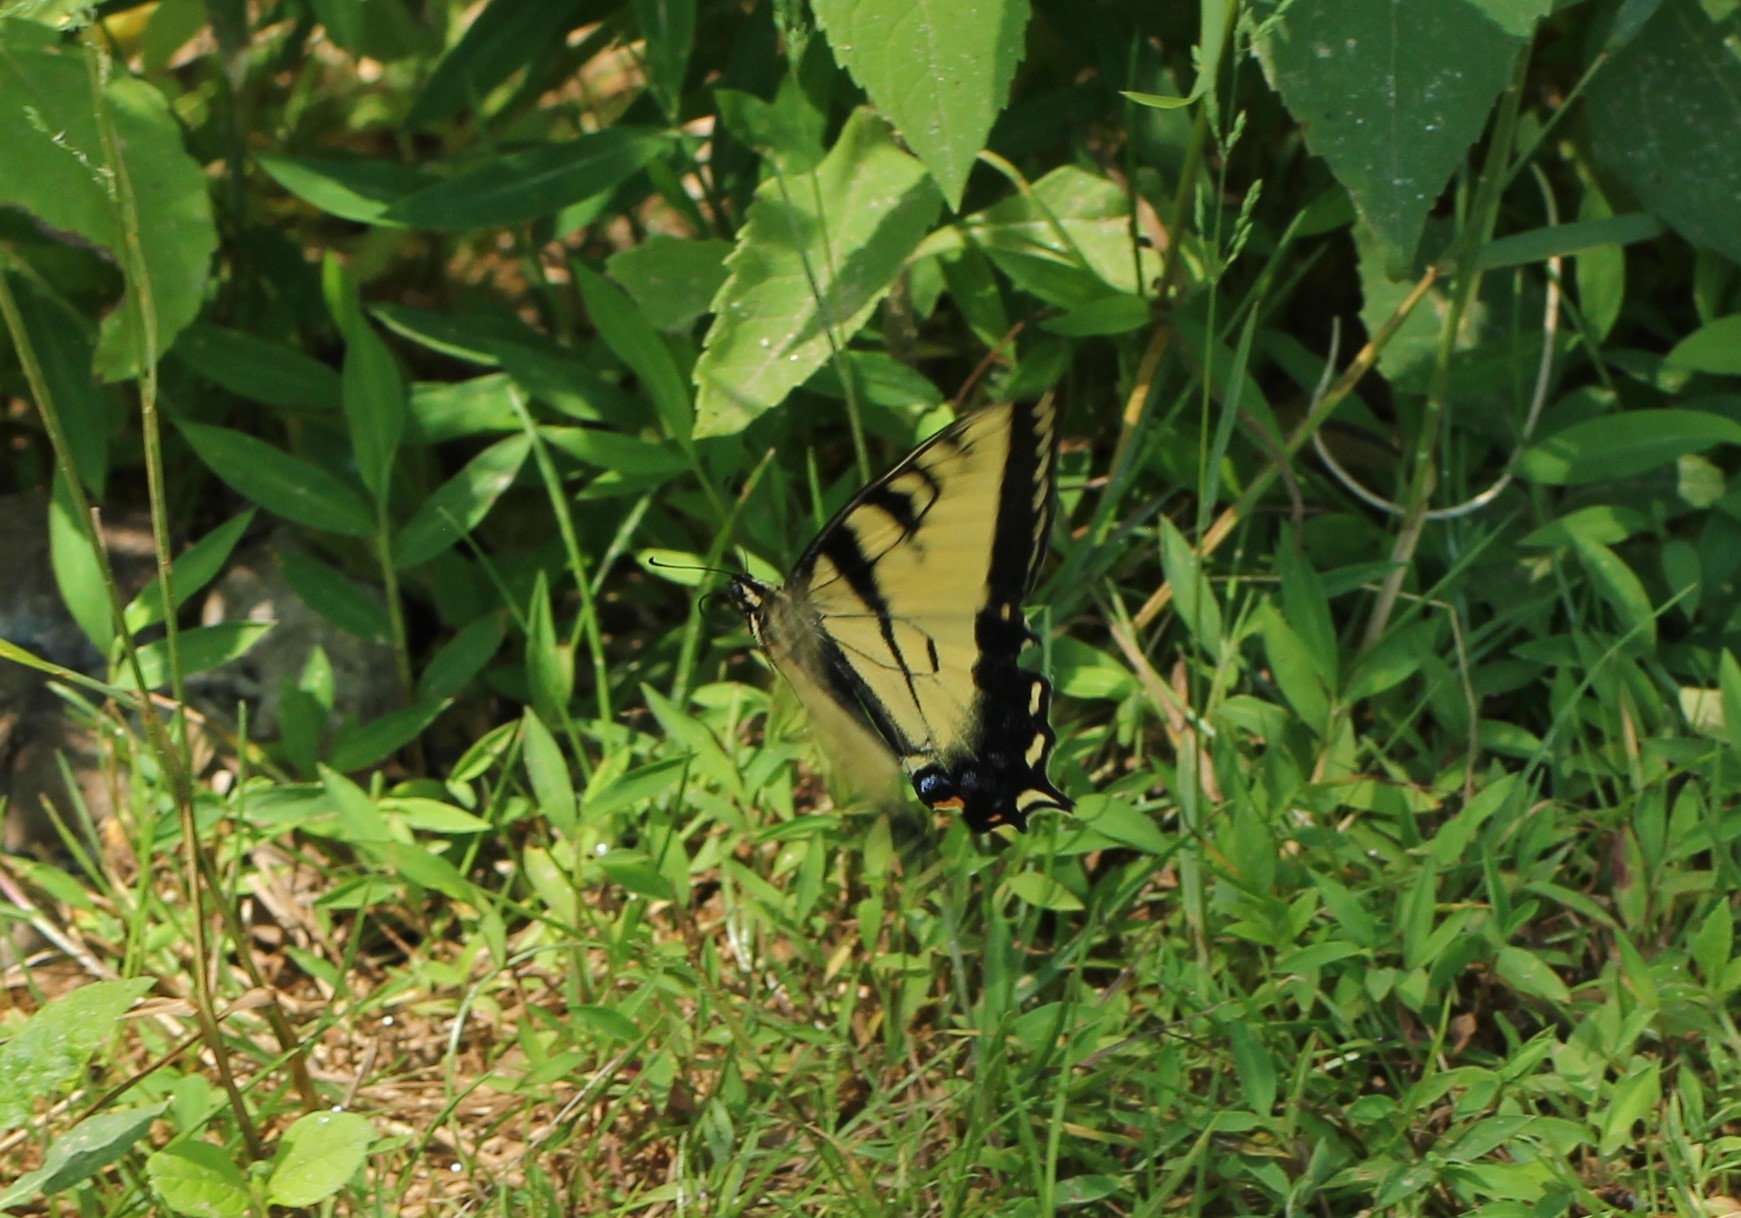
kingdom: Animalia
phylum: Arthropoda
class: Insecta
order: Lepidoptera
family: Papilionidae
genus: Papilio
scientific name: Papilio glaucus
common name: Tiger swallowtail
